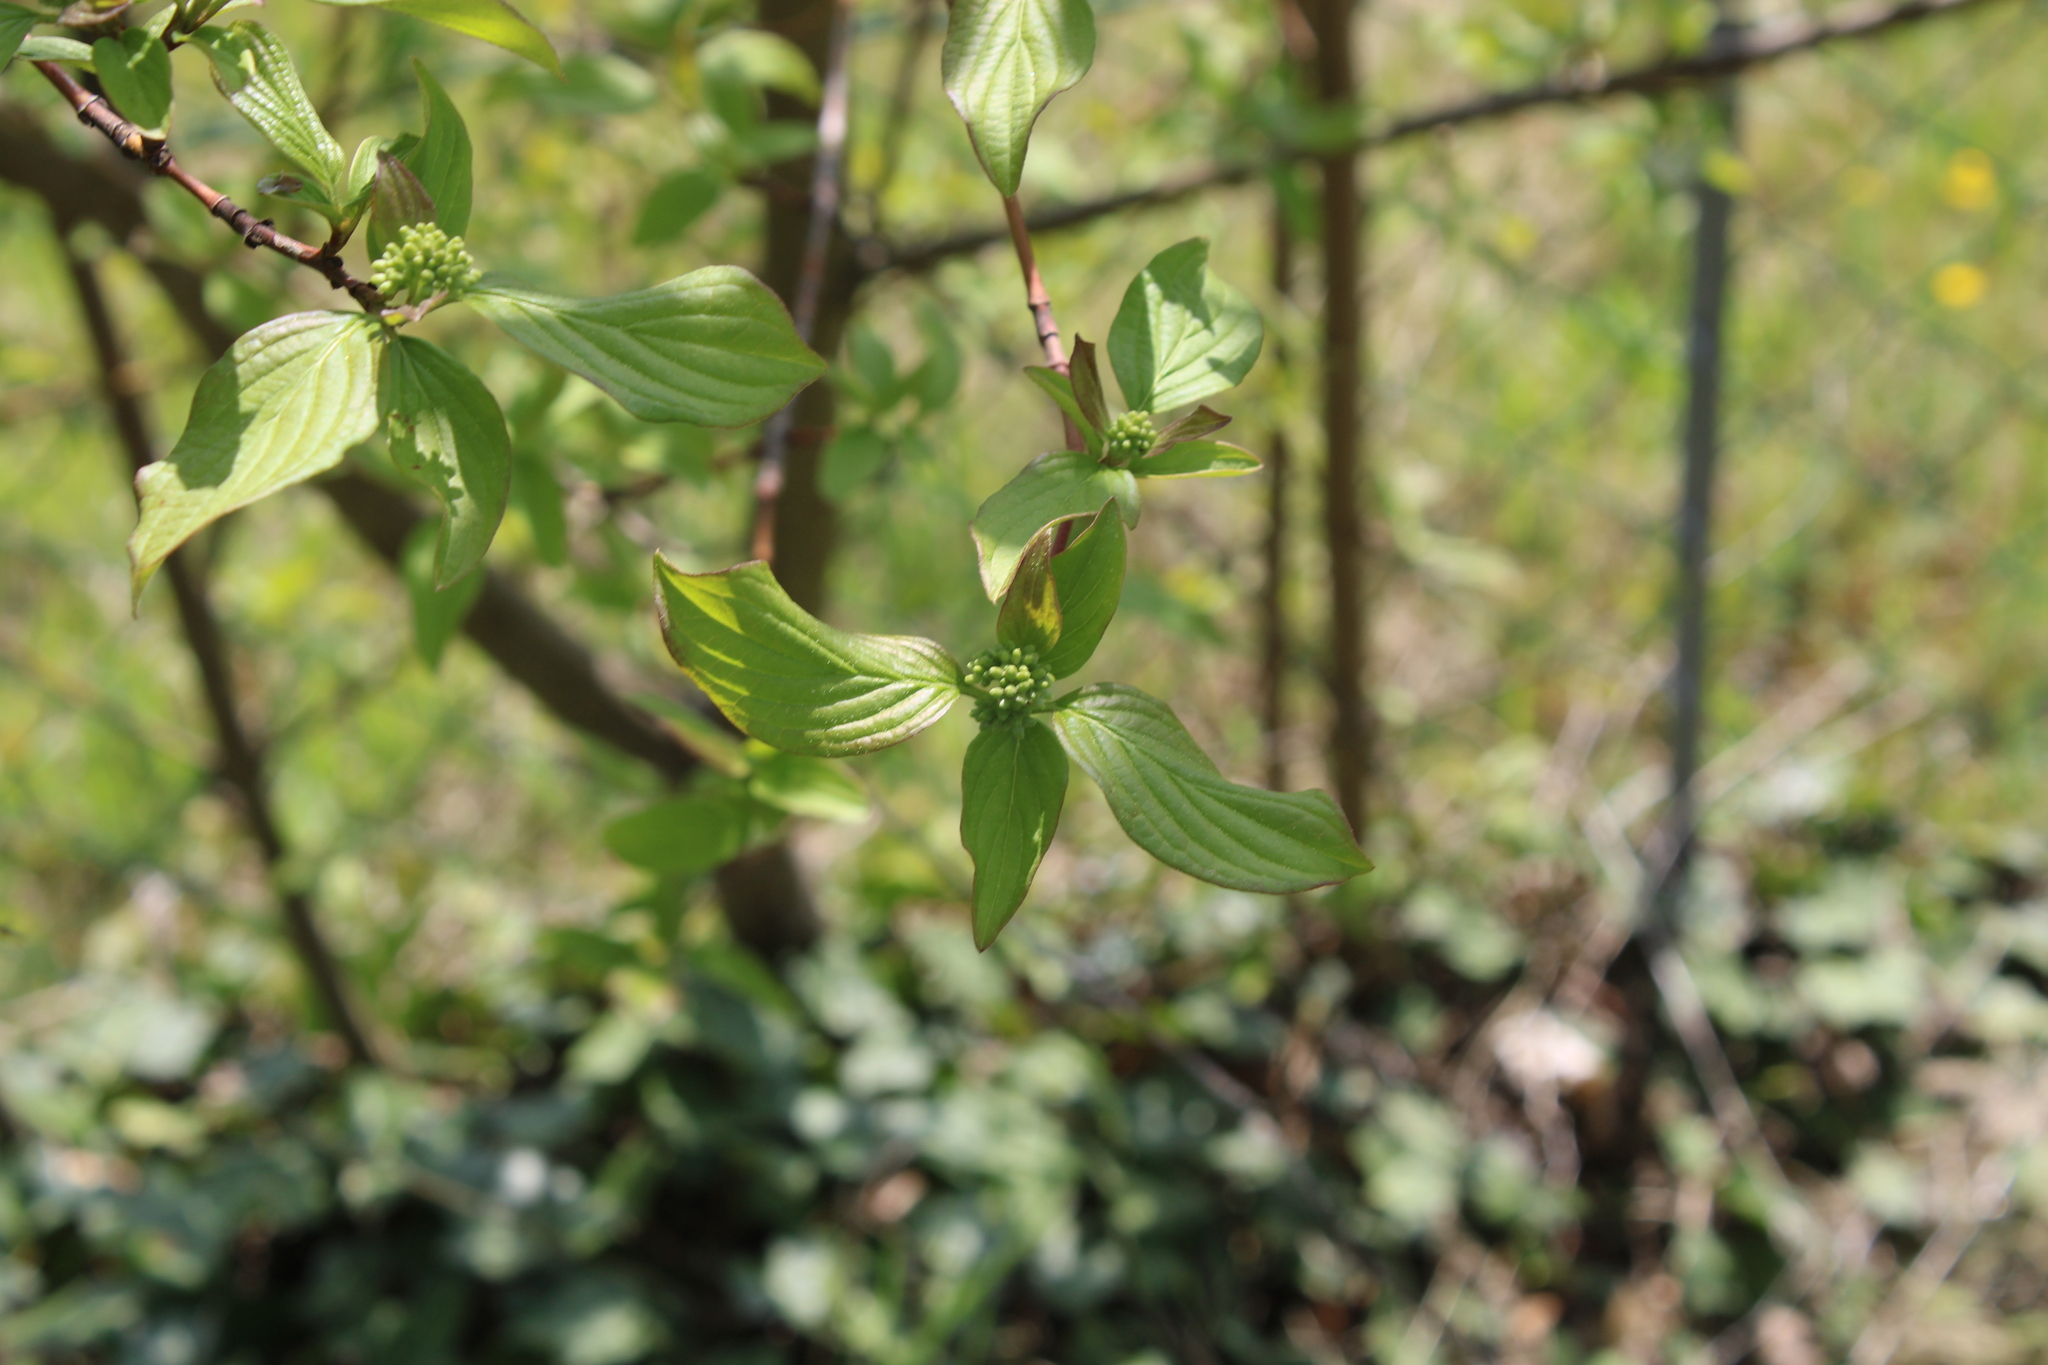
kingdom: Plantae
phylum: Tracheophyta
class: Magnoliopsida
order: Cornales
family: Cornaceae
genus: Cornus
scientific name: Cornus sanguinea
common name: Dogwood
